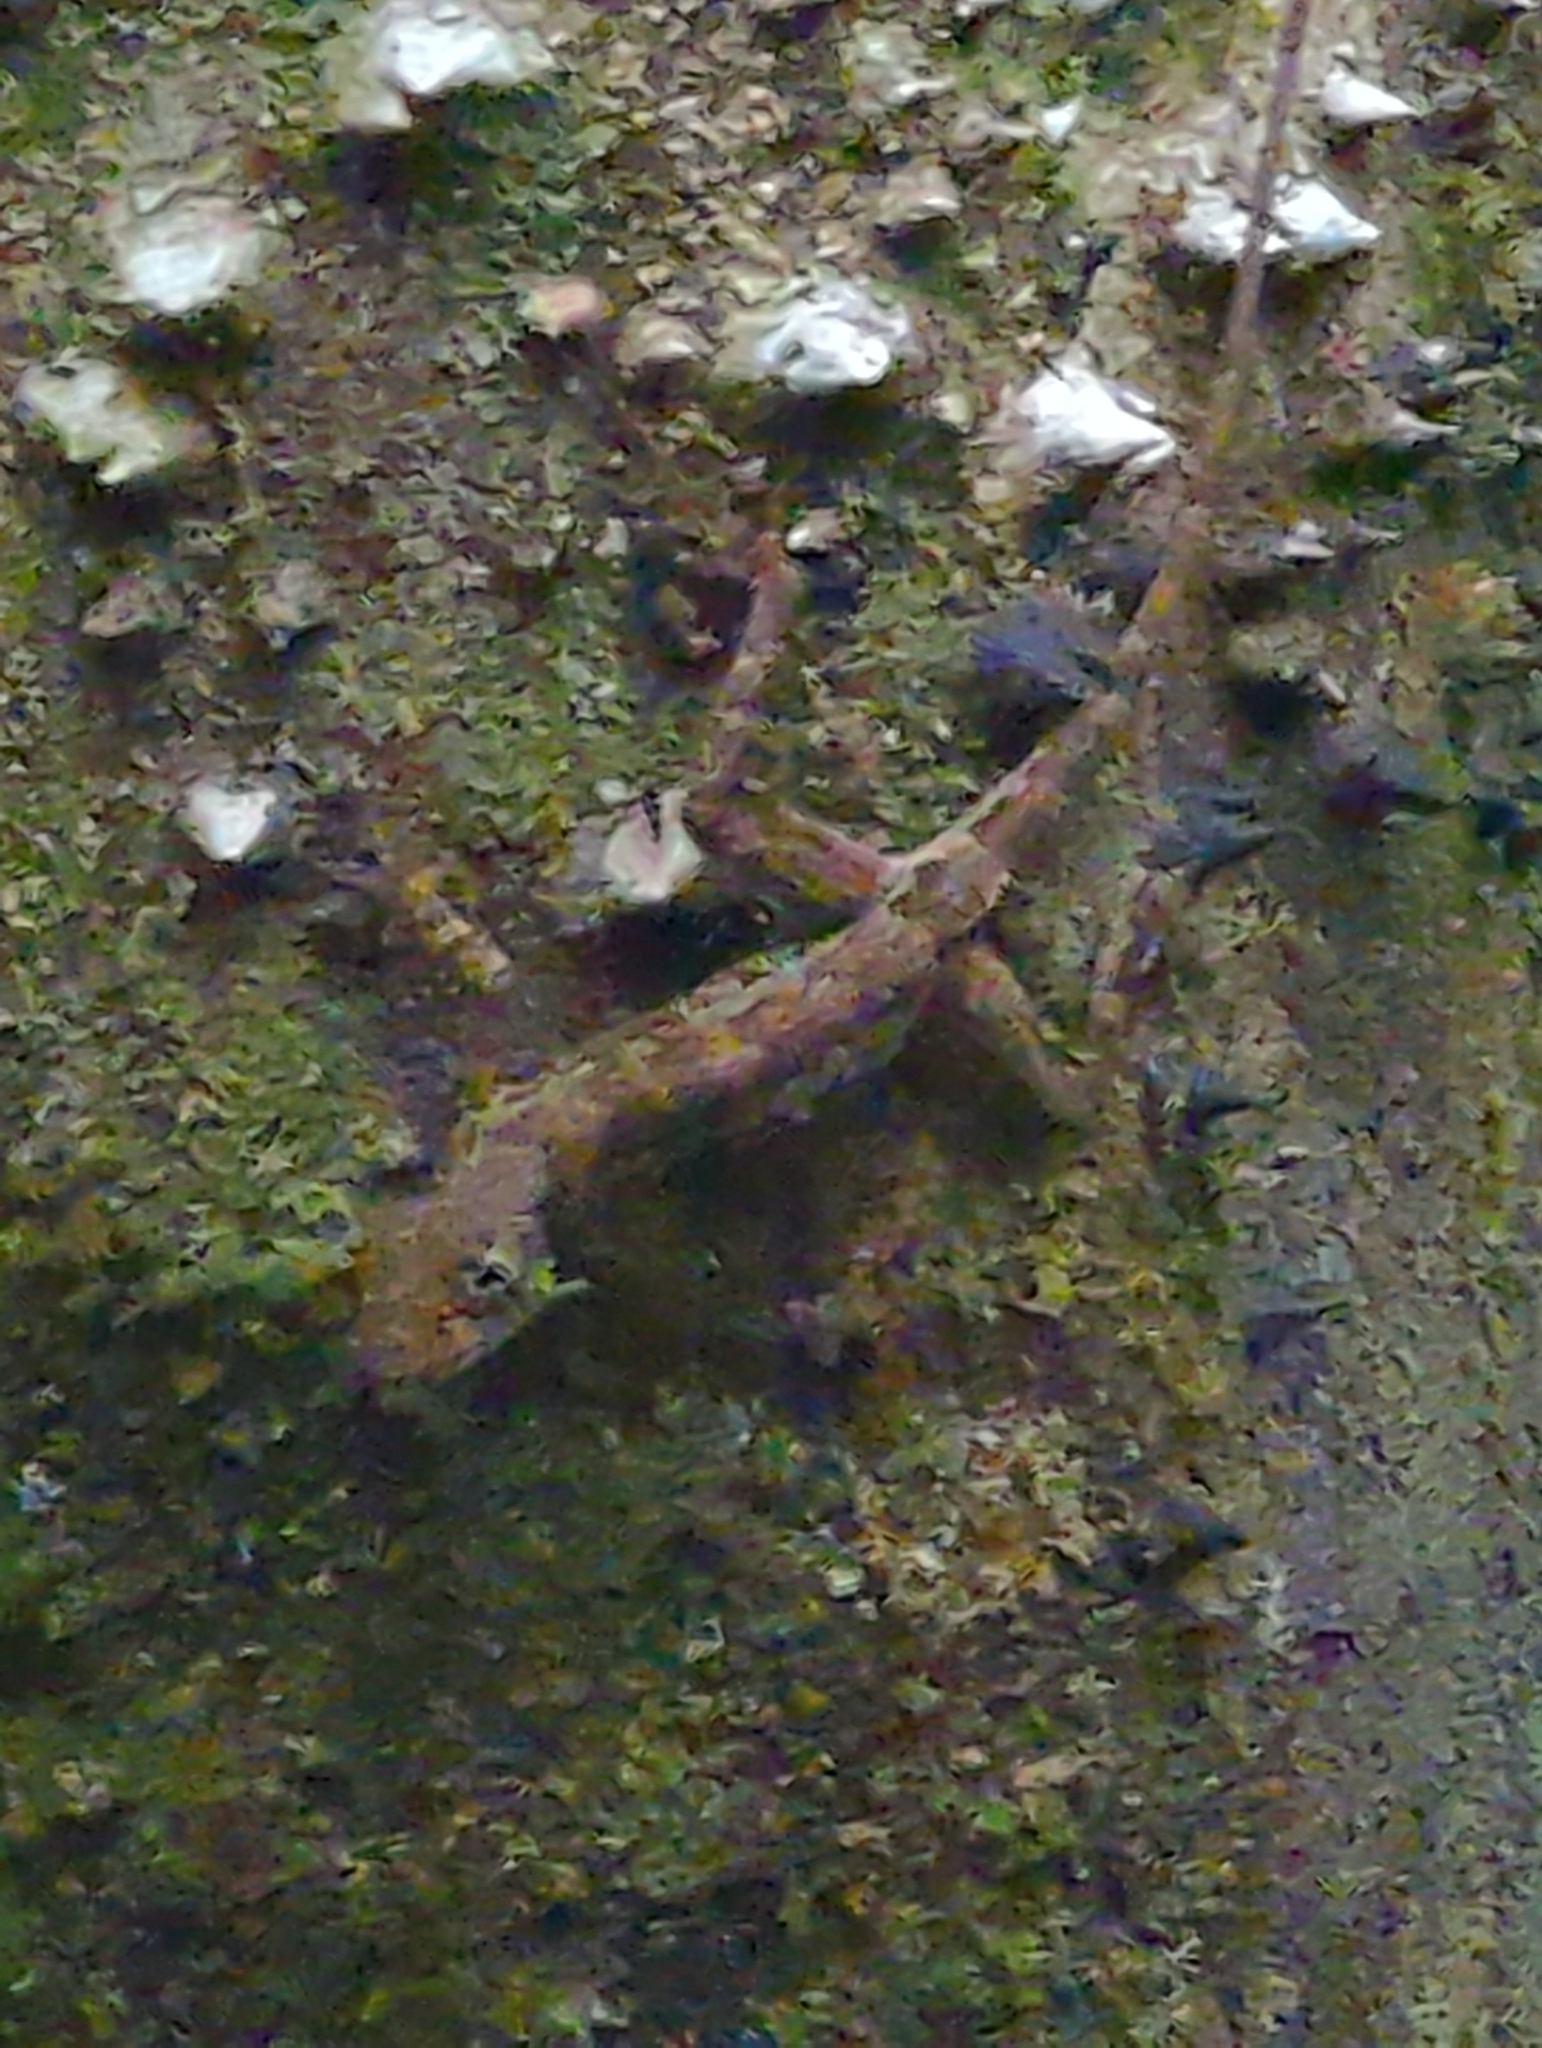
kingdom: Animalia
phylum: Chordata
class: Squamata
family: Dactyloidae
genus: Anolis
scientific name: Anolis capito
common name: Bighead anole
